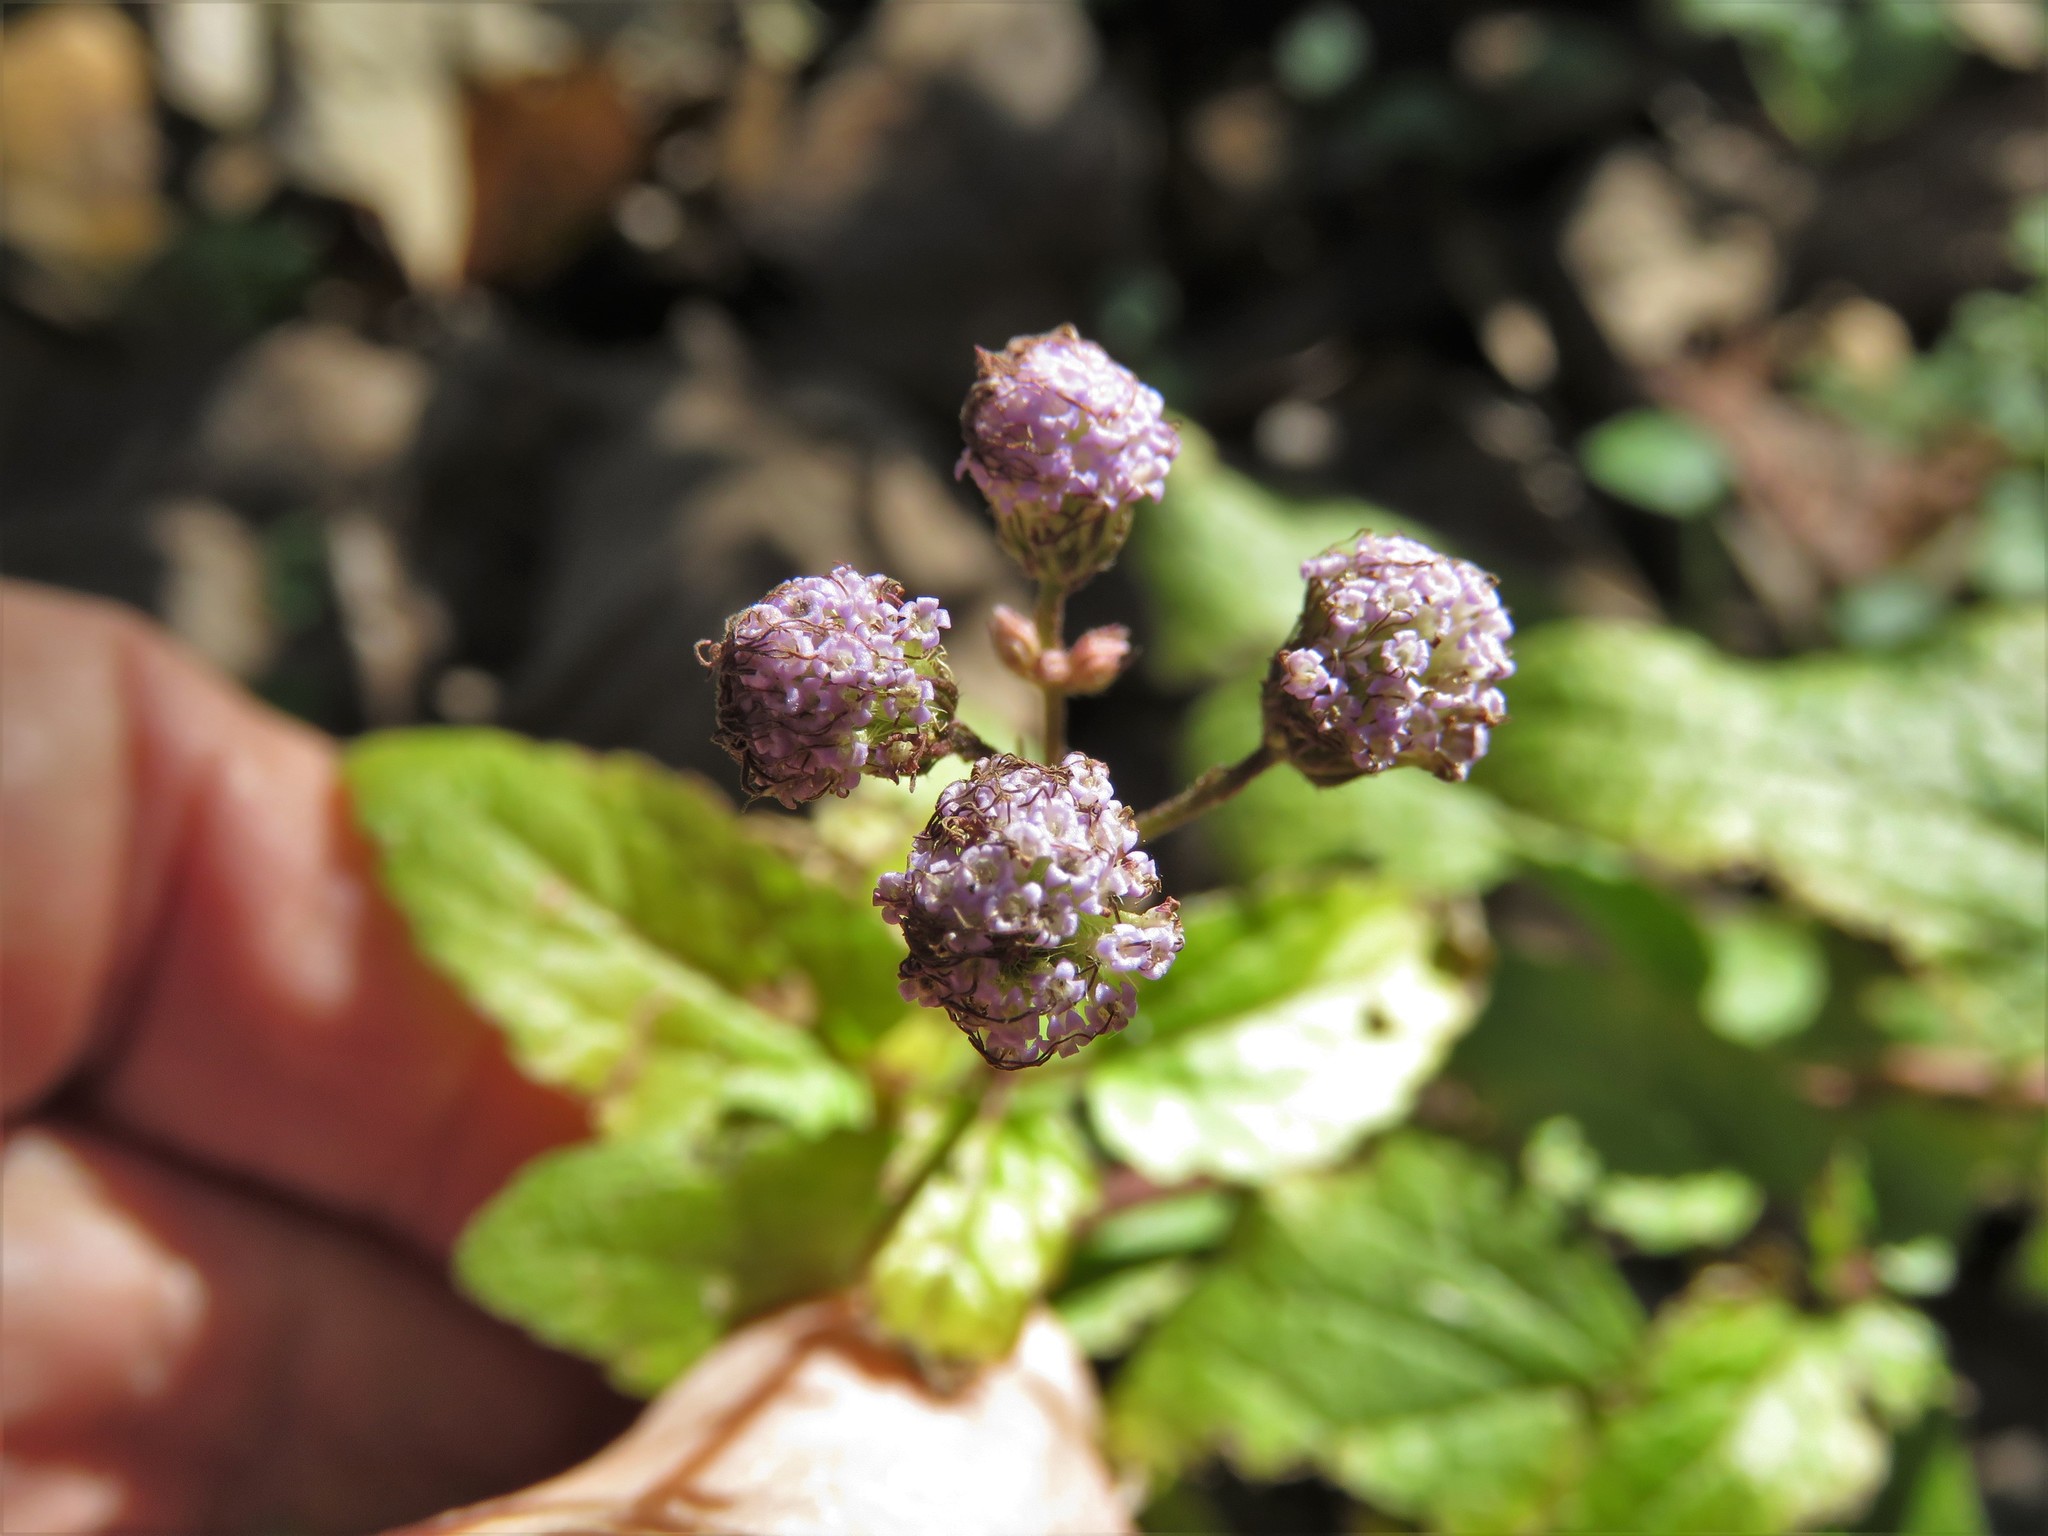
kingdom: Plantae
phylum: Tracheophyta
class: Magnoliopsida
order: Asterales
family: Asteraceae
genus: Conoclinium
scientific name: Conoclinium coelestinum
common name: Blue mistflower
